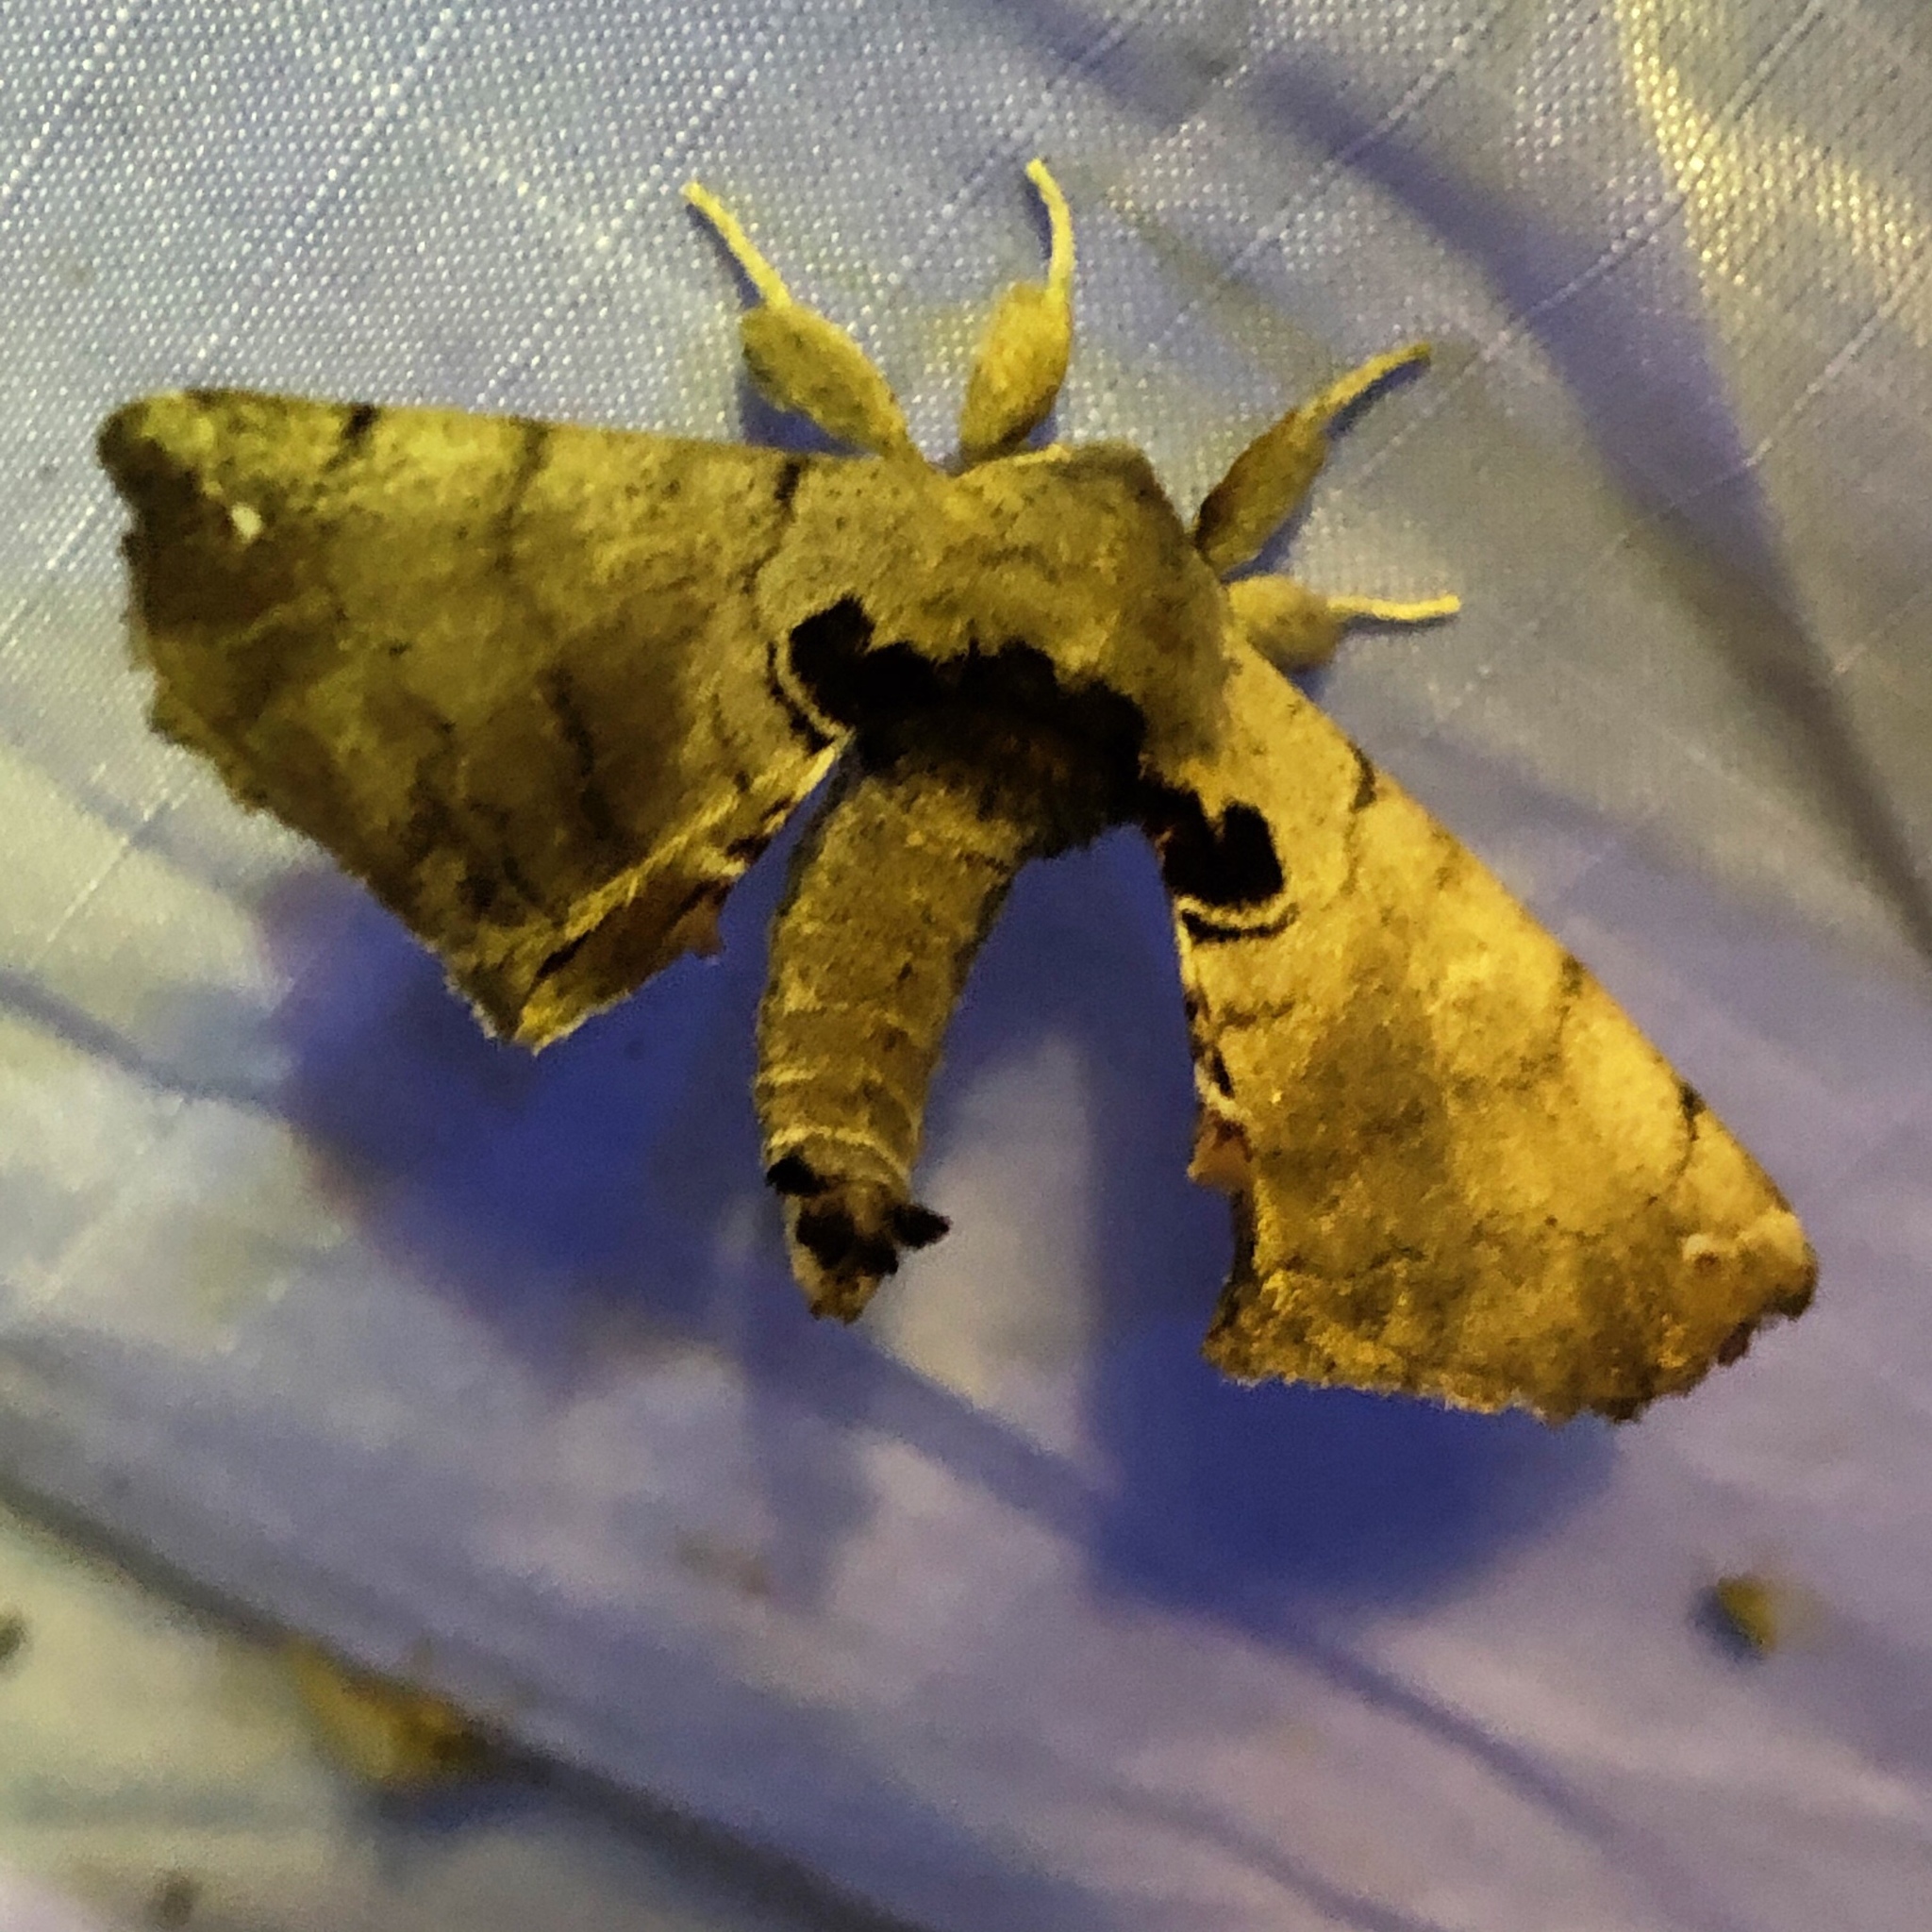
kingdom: Animalia
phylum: Arthropoda
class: Insecta
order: Lepidoptera
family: Apatelodidae
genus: Hygrochroa
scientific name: Hygrochroa Apatelodes torrefacta
